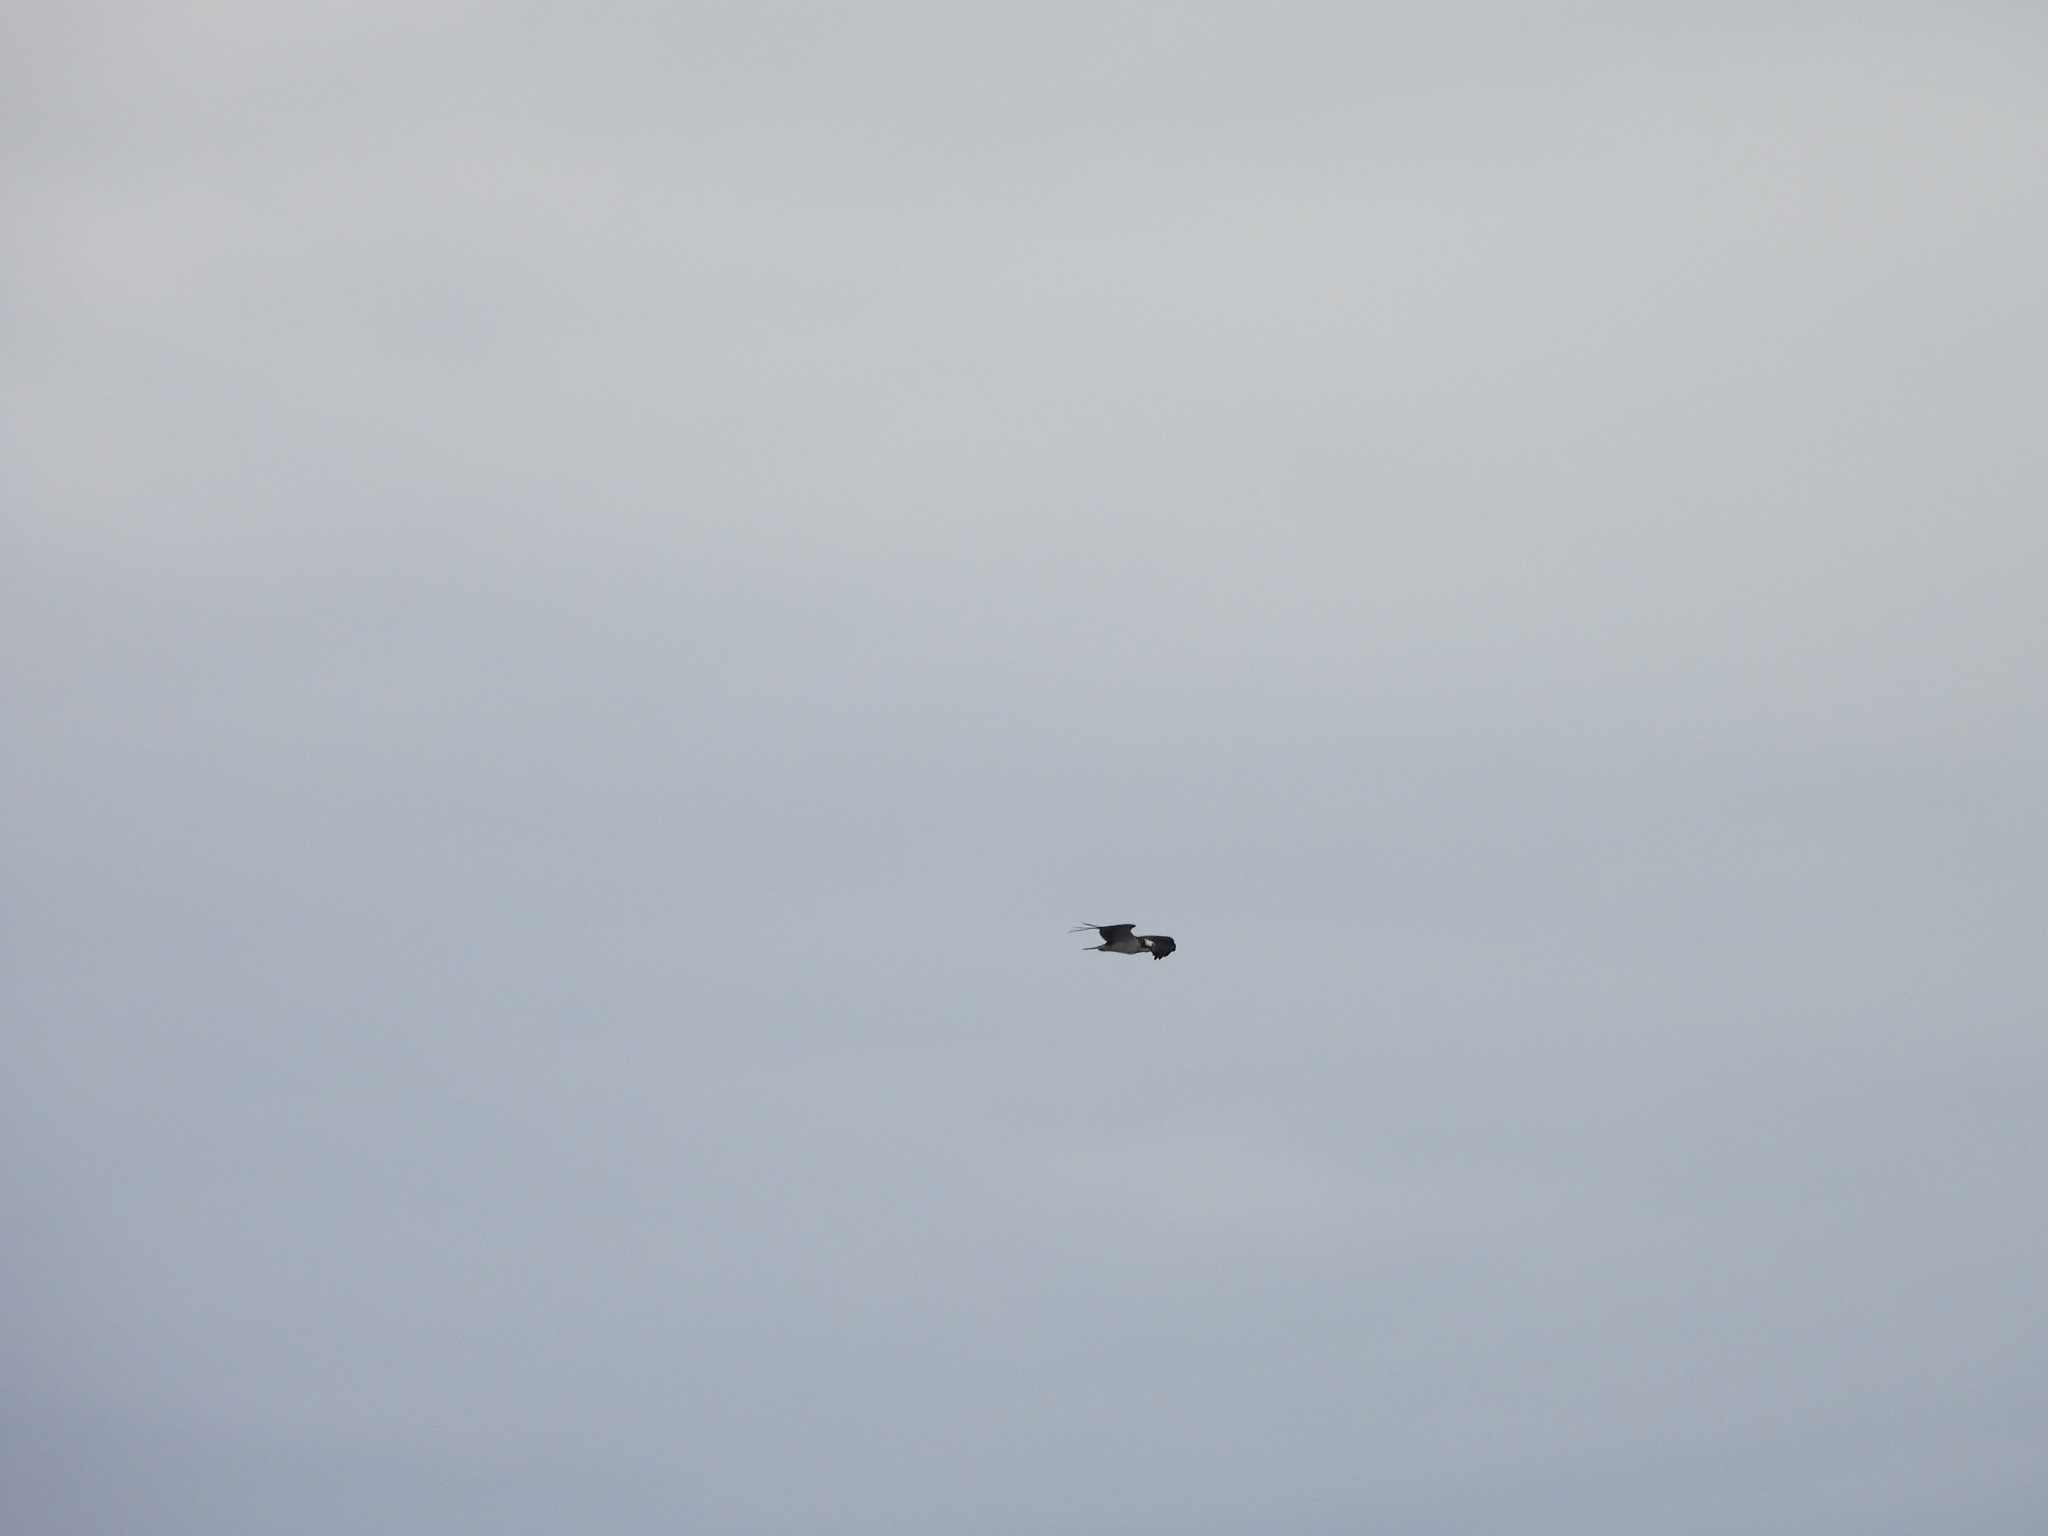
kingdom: Animalia
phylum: Chordata
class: Aves
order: Accipitriformes
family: Pandionidae
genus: Pandion
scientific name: Pandion haliaetus
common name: Osprey
